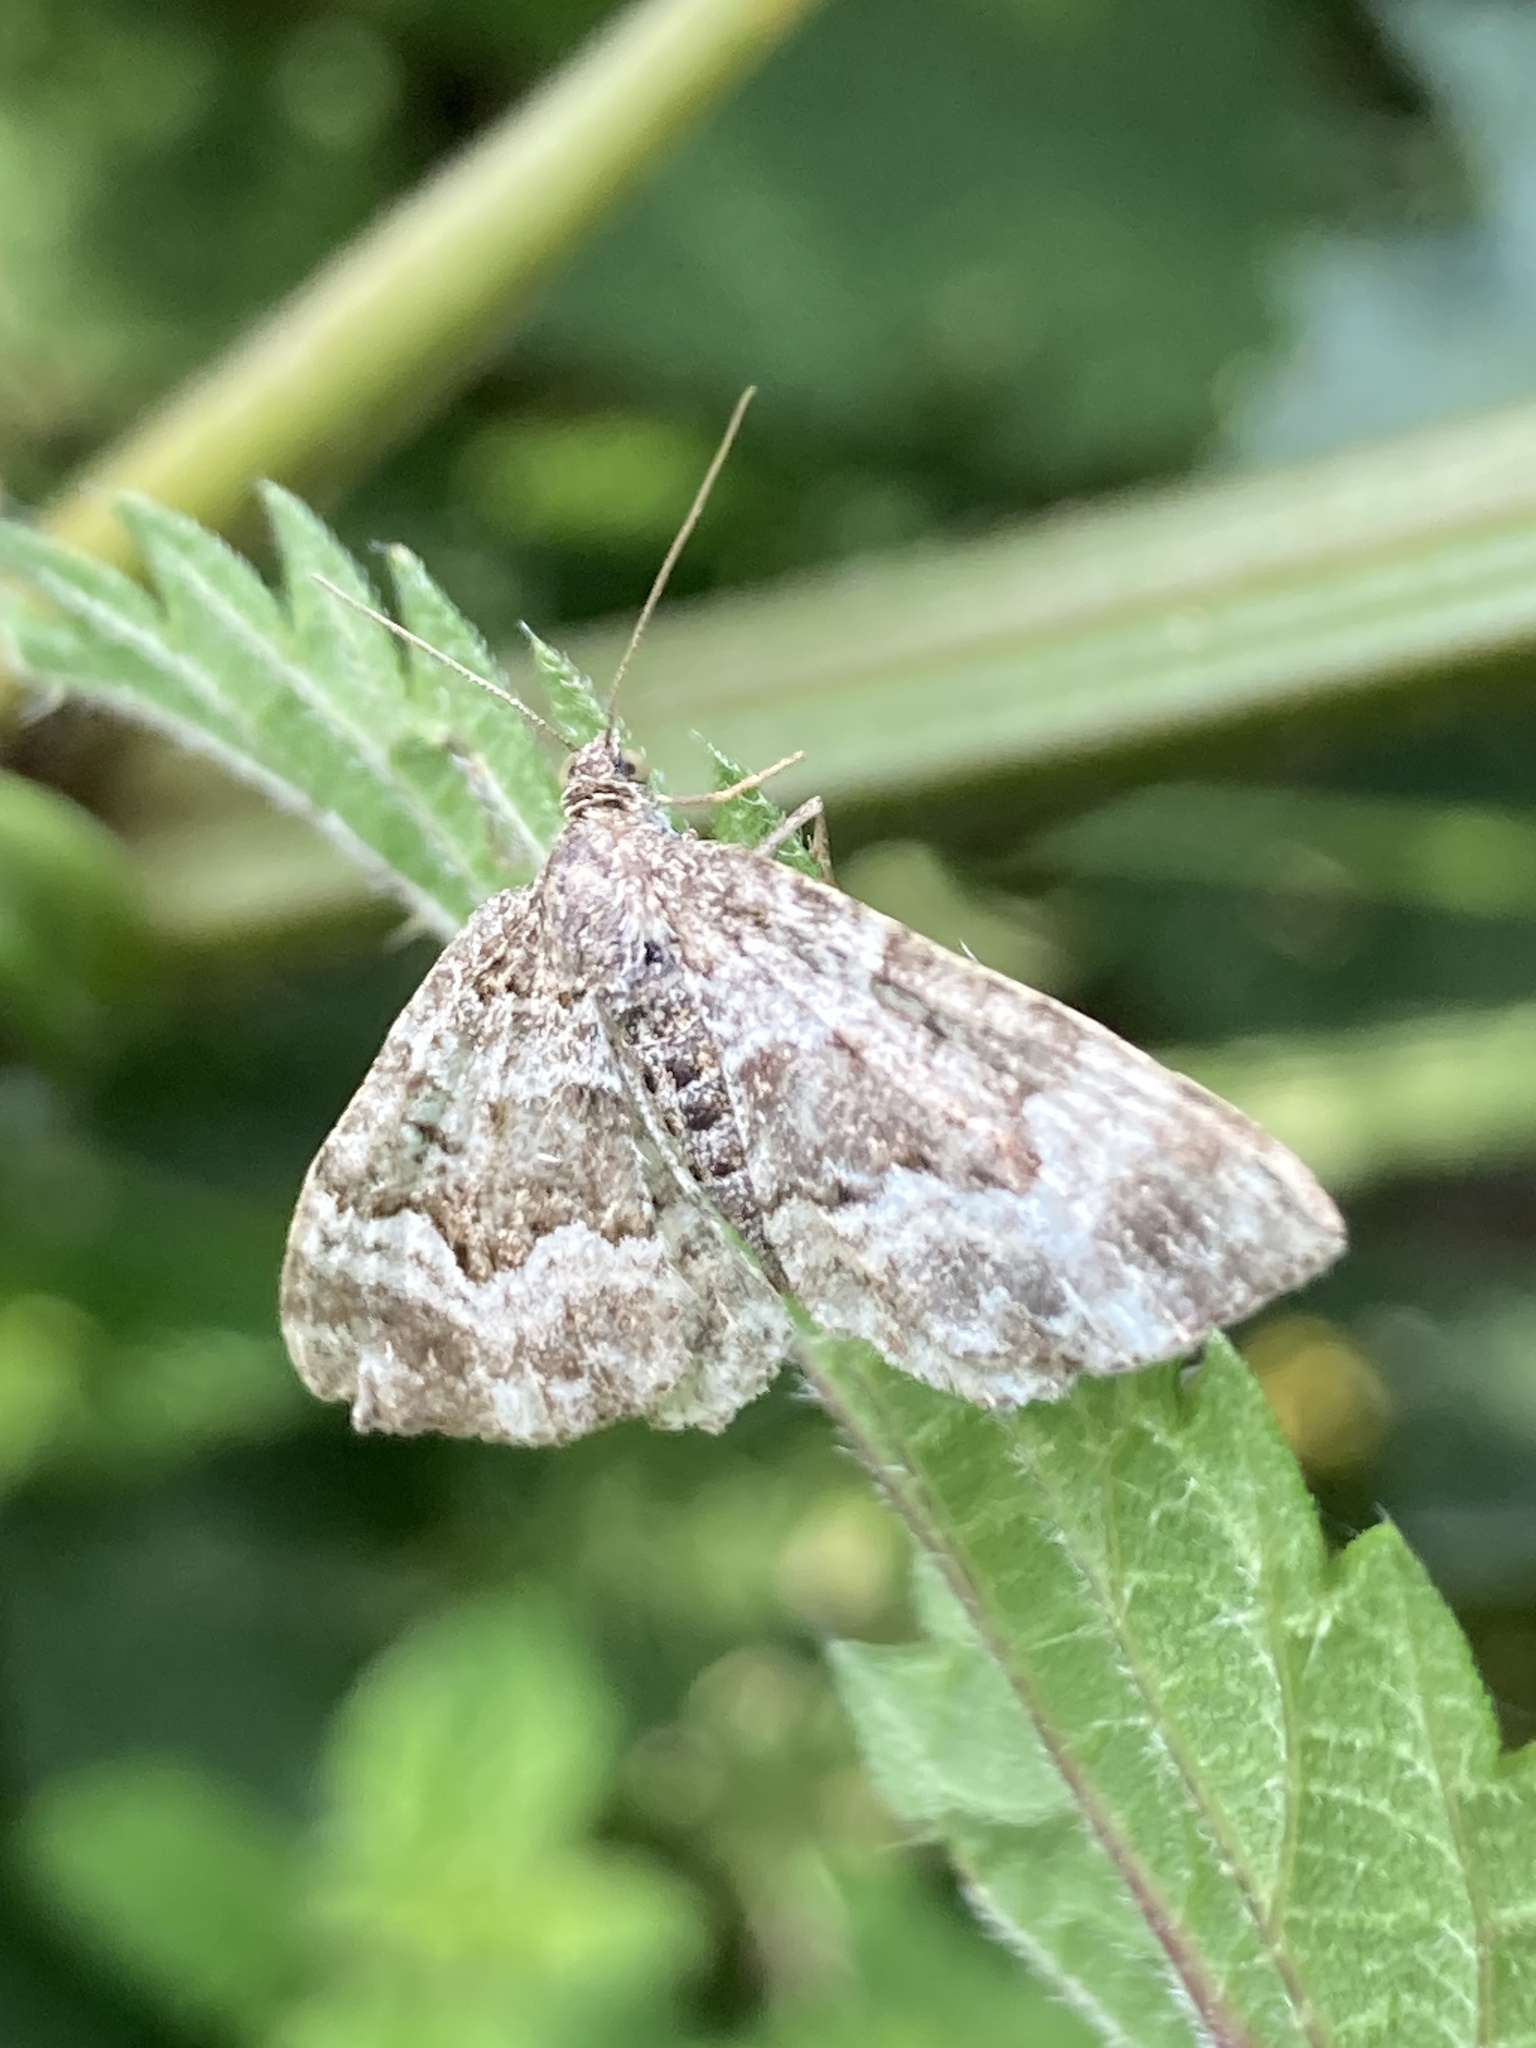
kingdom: Animalia
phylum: Arthropoda
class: Insecta
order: Lepidoptera
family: Geometridae
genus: Epirrhoe
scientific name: Epirrhoe alternata
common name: Common carpet
